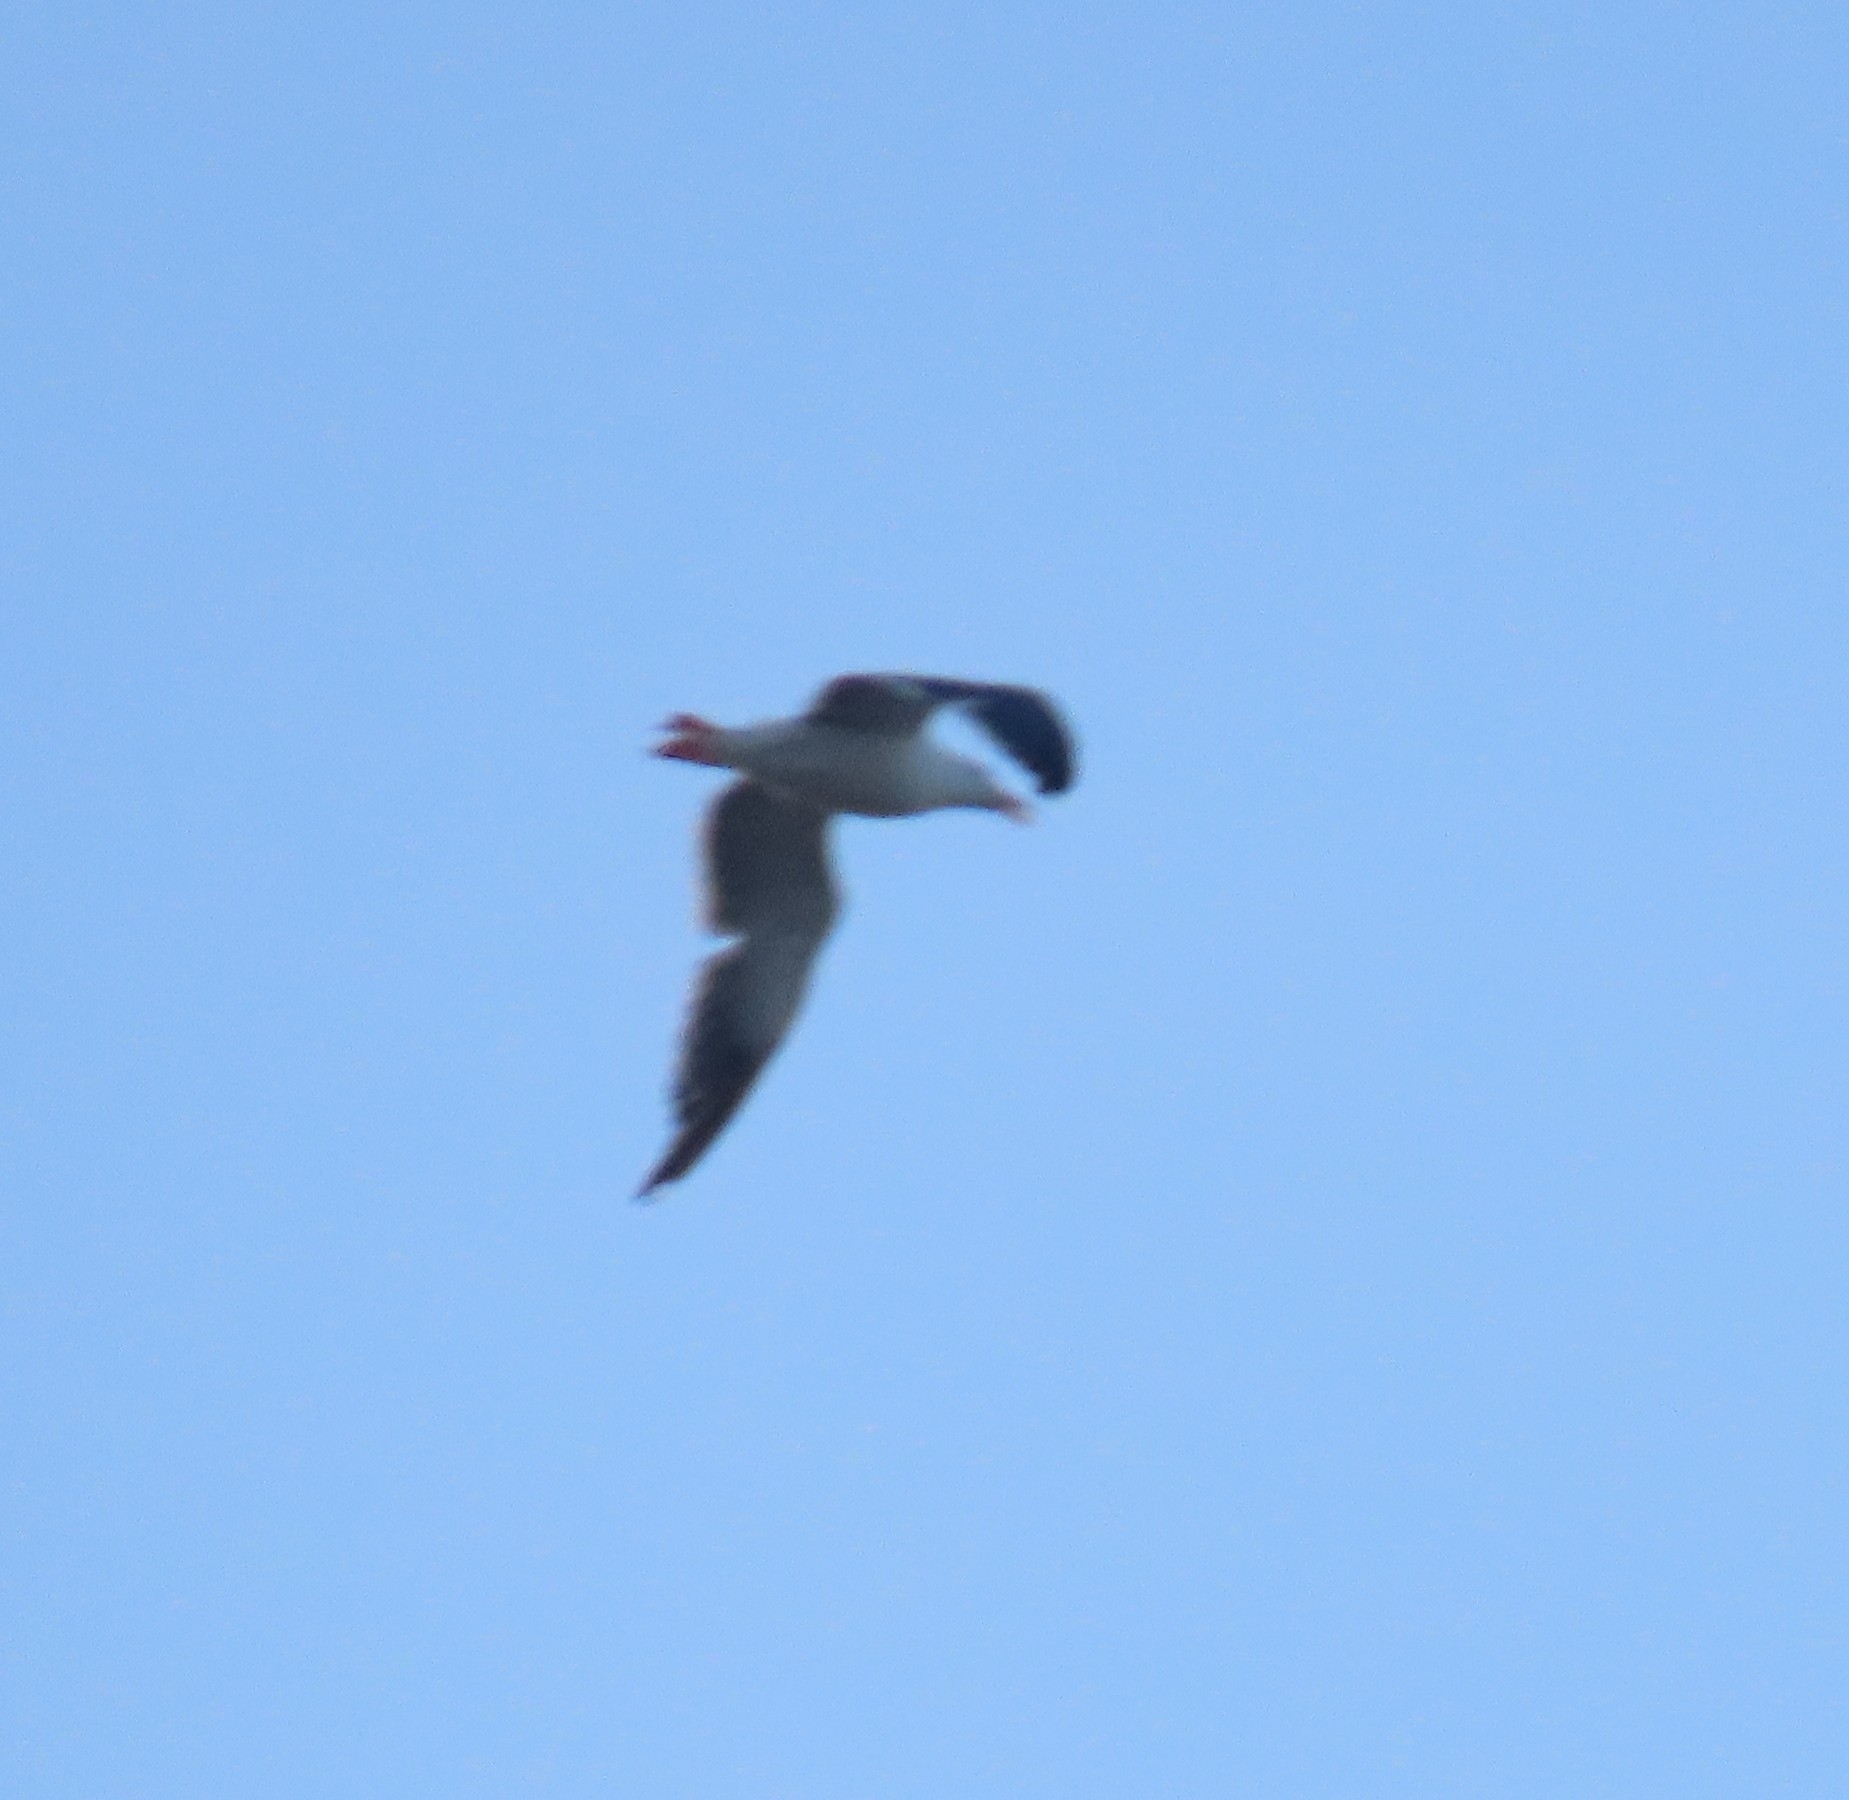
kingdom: Animalia
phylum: Chordata
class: Aves
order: Charadriiformes
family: Laridae
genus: Larus
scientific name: Larus occidentalis
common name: Western gull
